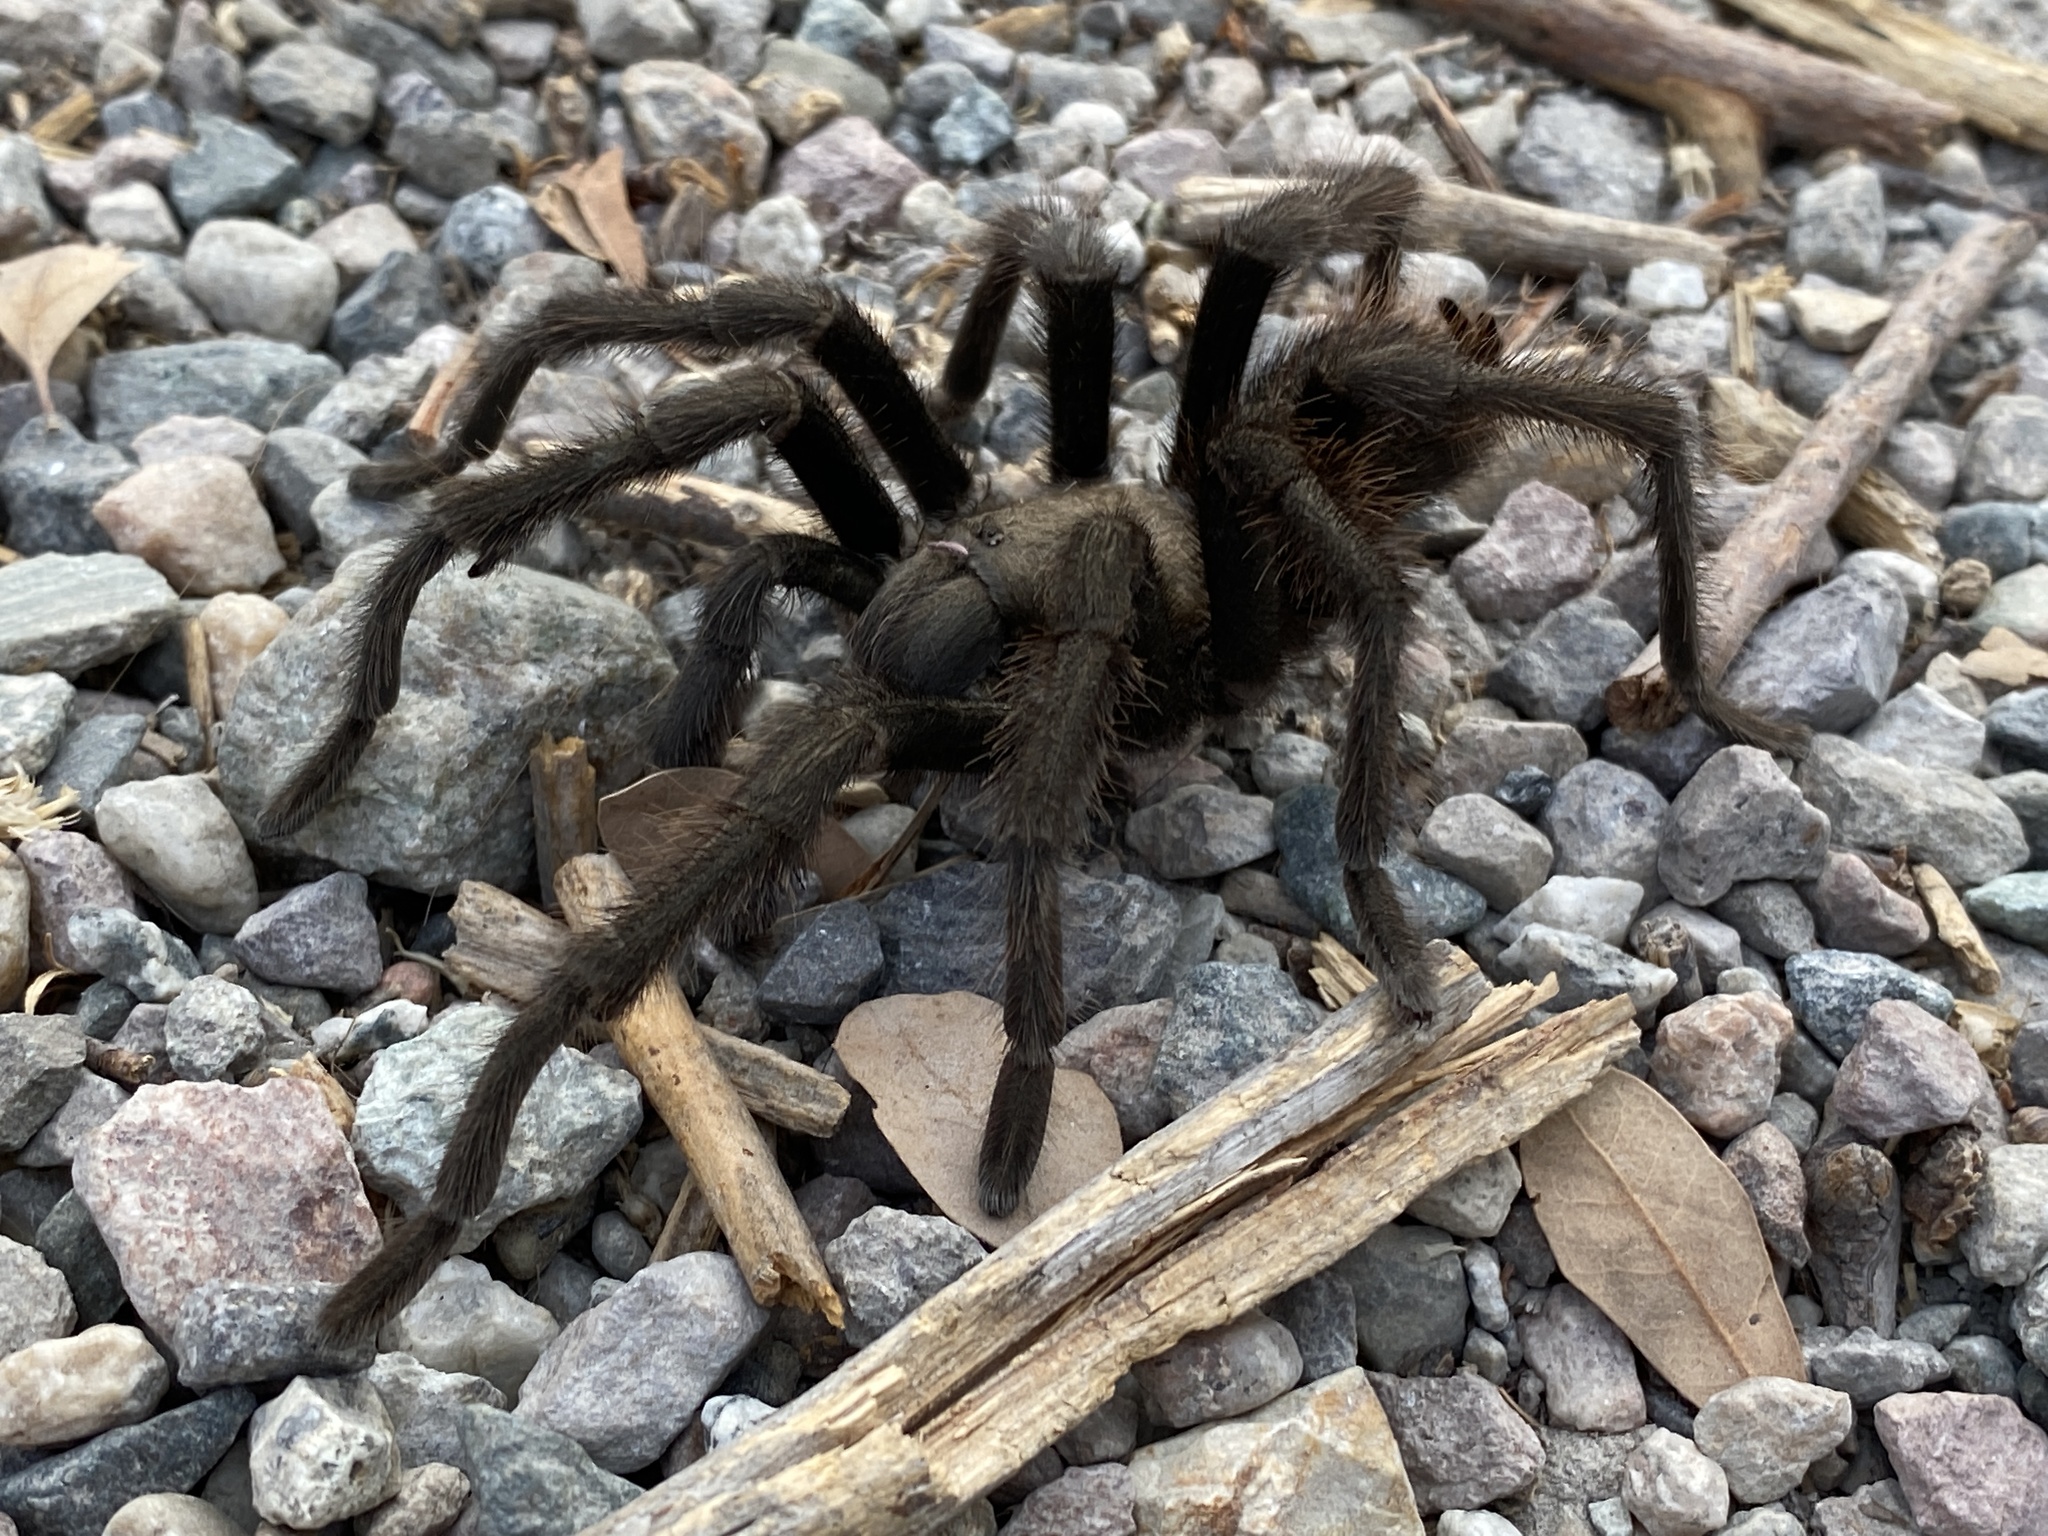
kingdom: Animalia
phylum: Arthropoda
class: Arachnida
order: Araneae
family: Theraphosidae
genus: Aphonopelma
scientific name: Aphonopelma iodius
